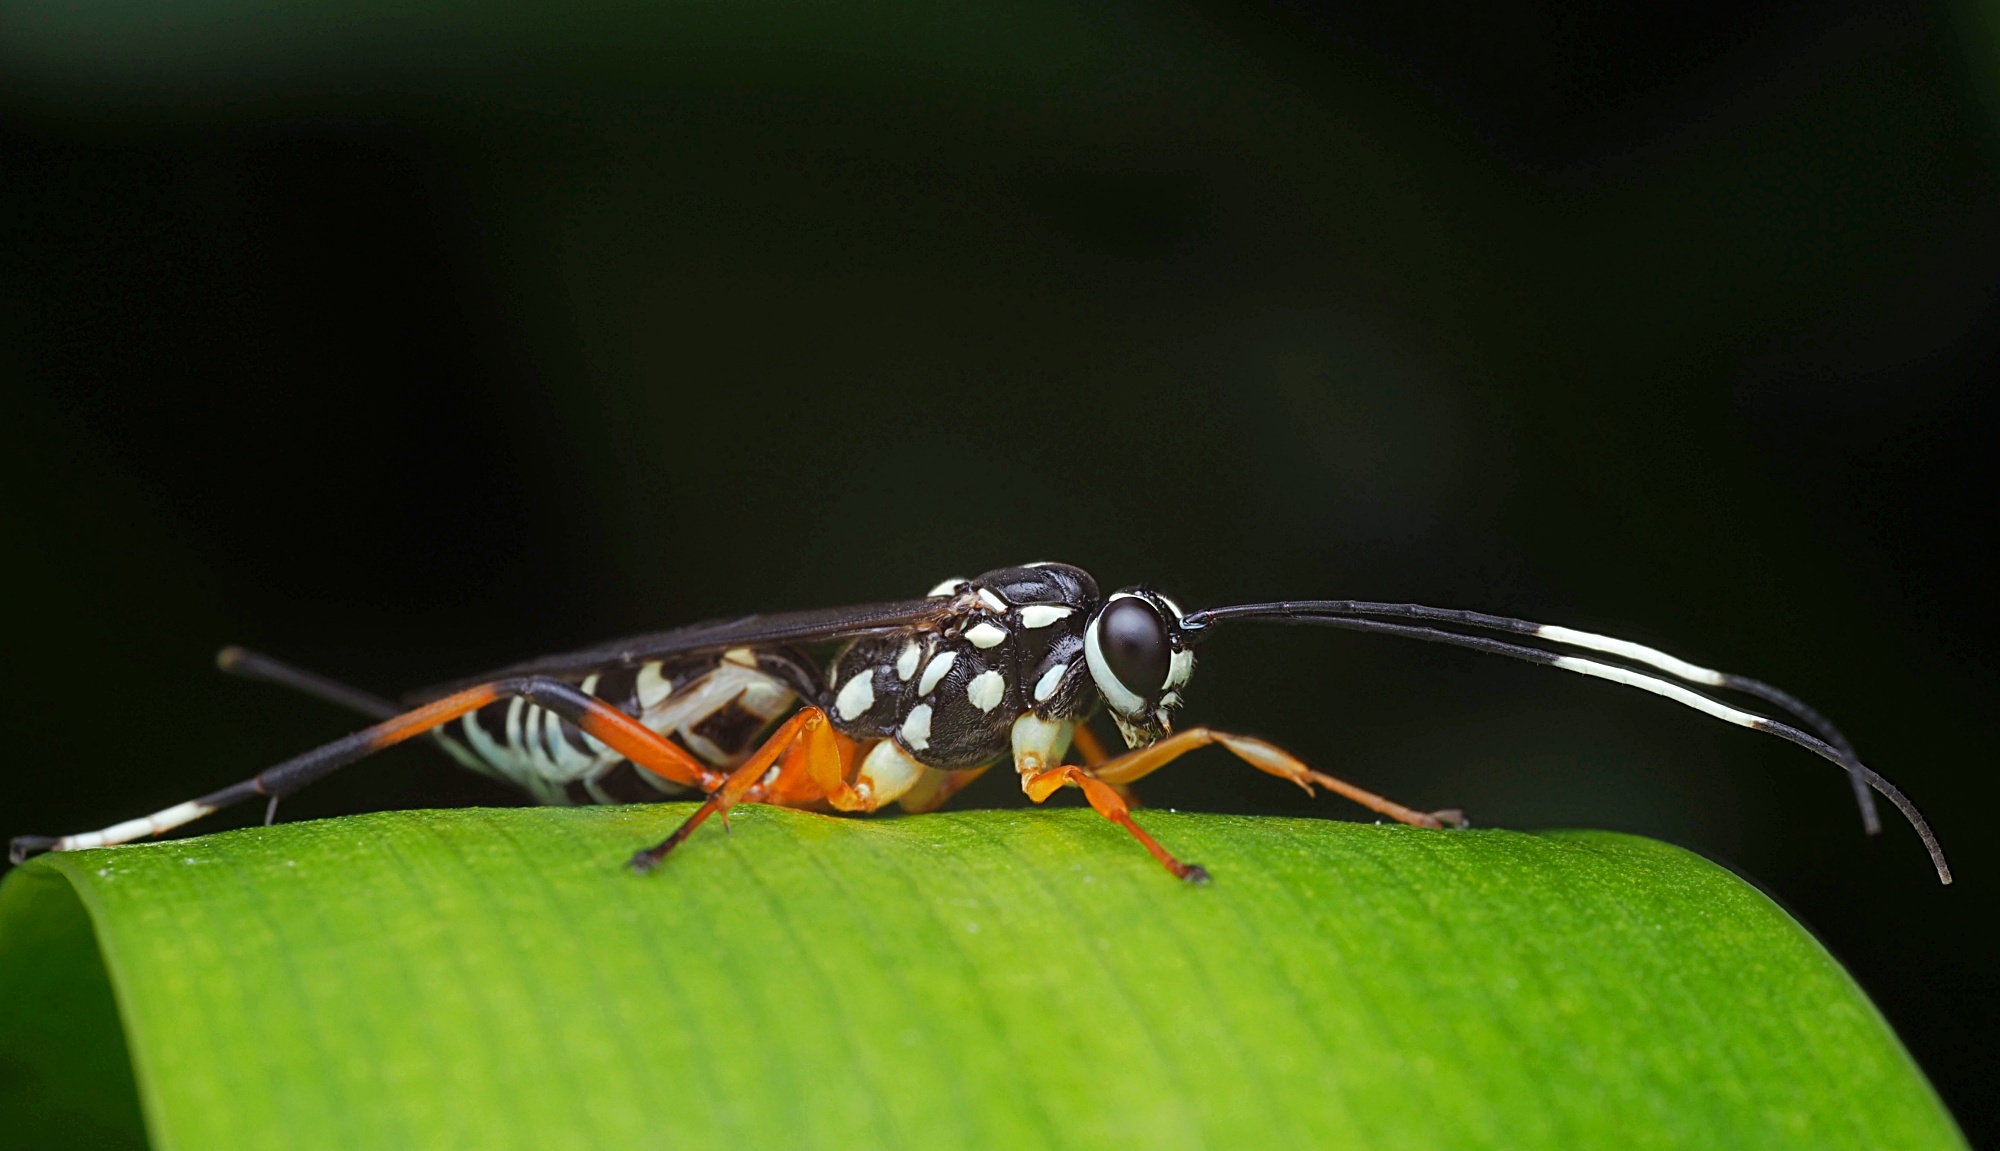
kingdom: Animalia
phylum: Arthropoda
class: Insecta
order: Hymenoptera
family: Ichneumonidae
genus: Xanthocryptus
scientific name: Xanthocryptus novozealandicus
